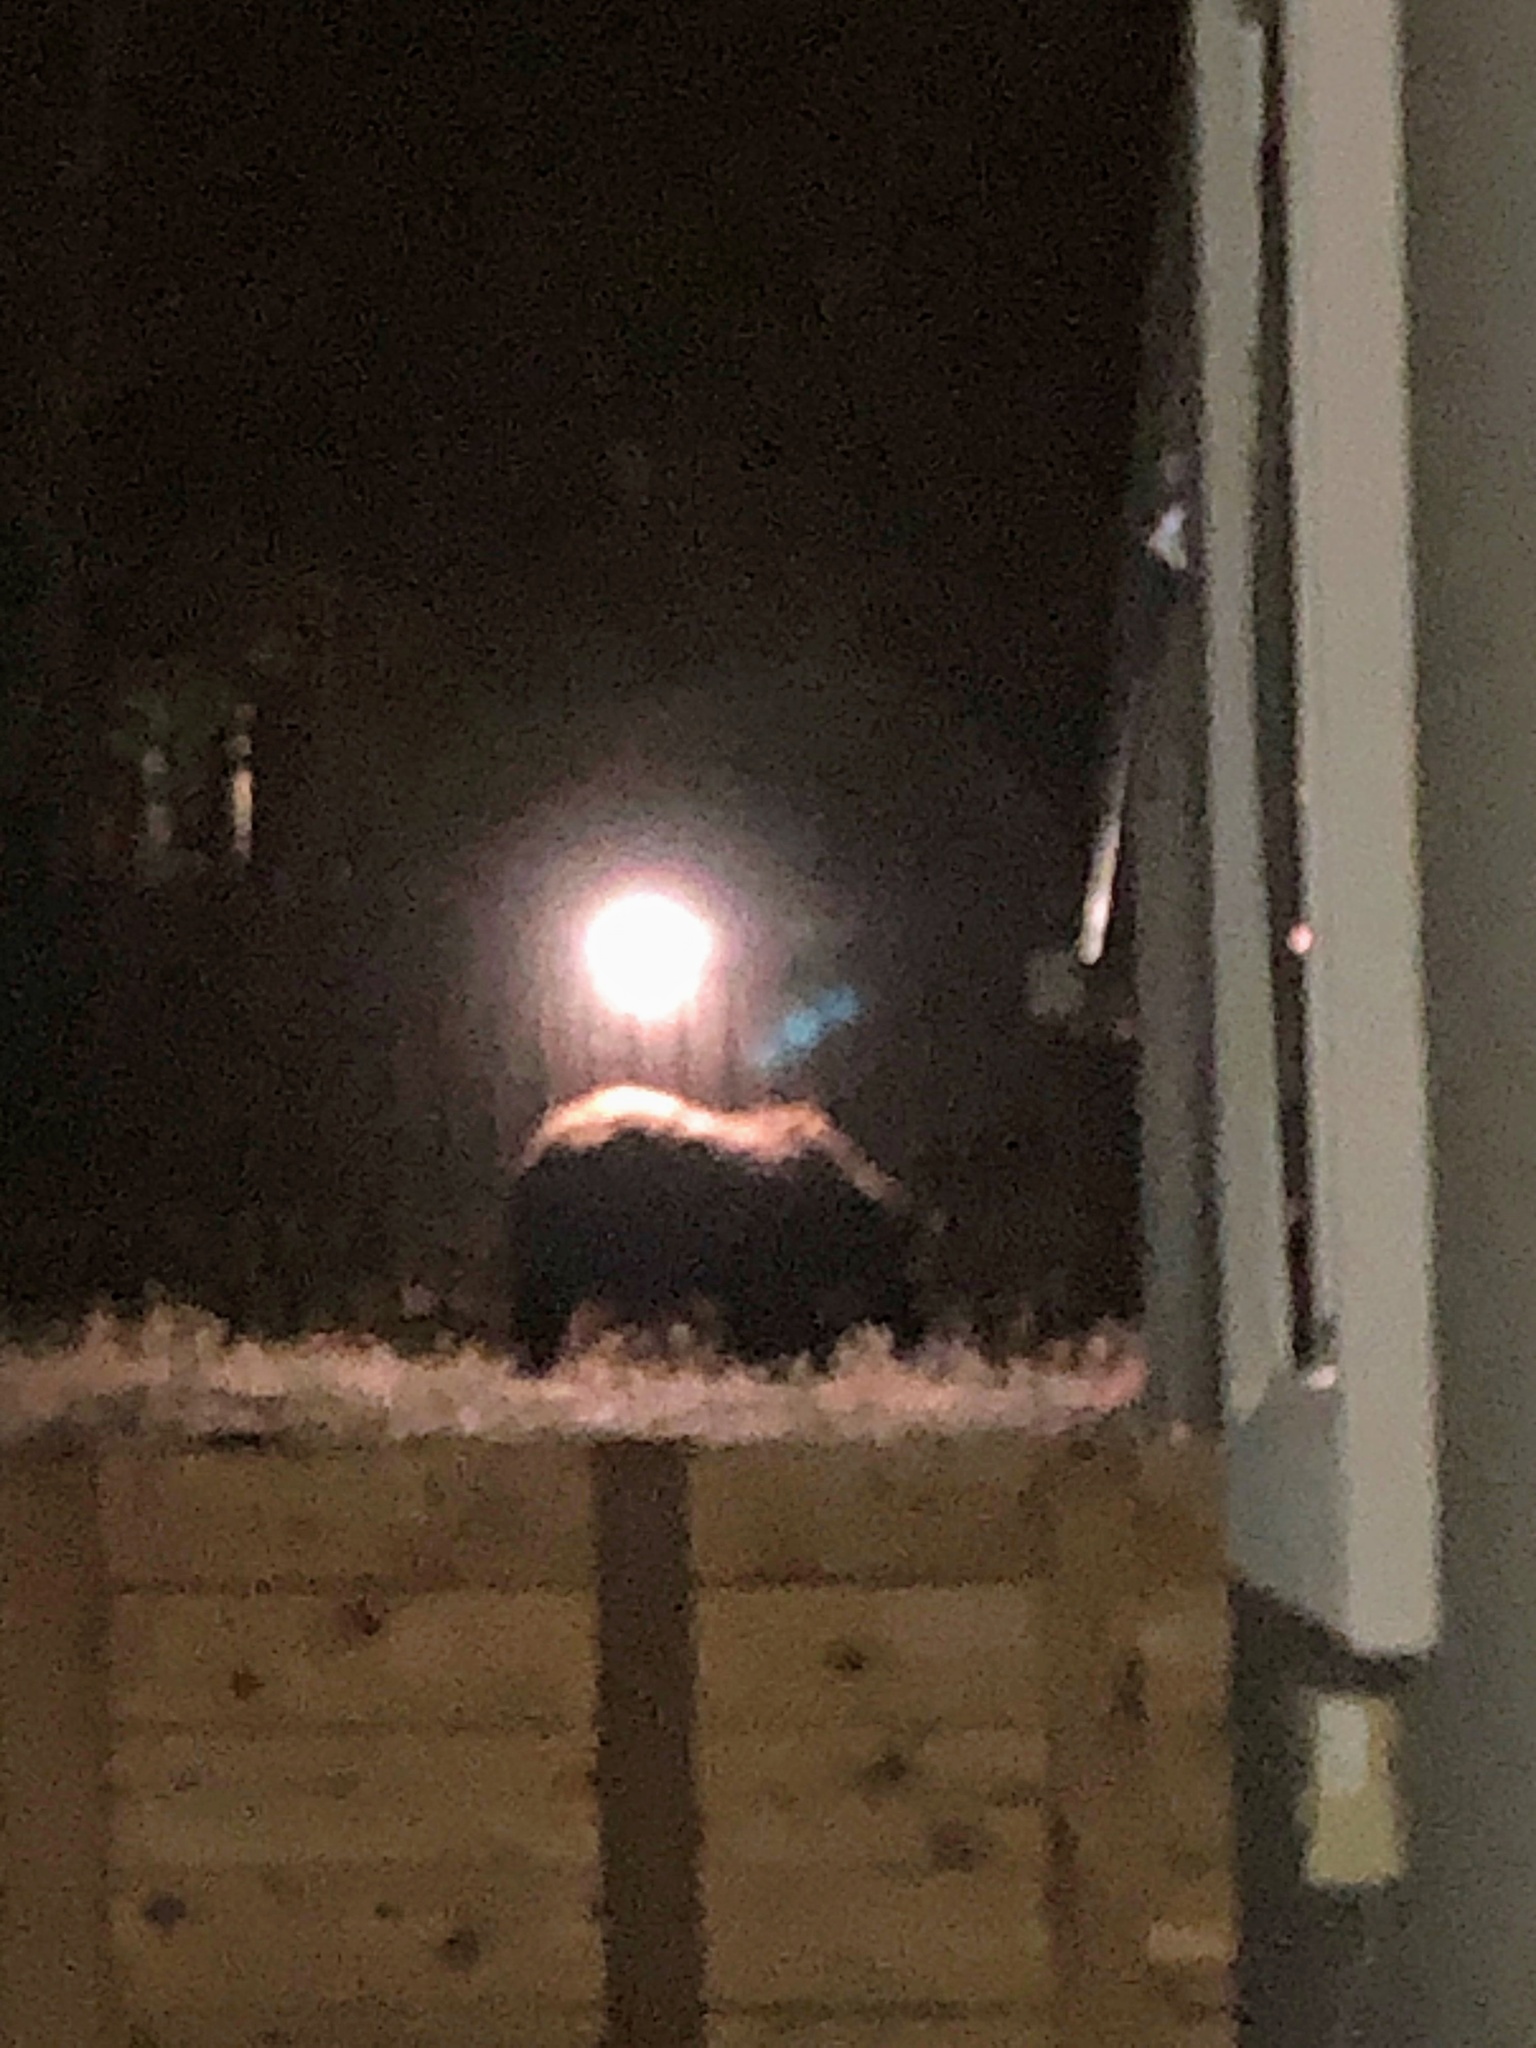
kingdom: Animalia
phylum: Chordata
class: Mammalia
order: Carnivora
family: Ursidae
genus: Ursus
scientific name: Ursus americanus
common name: American black bear
